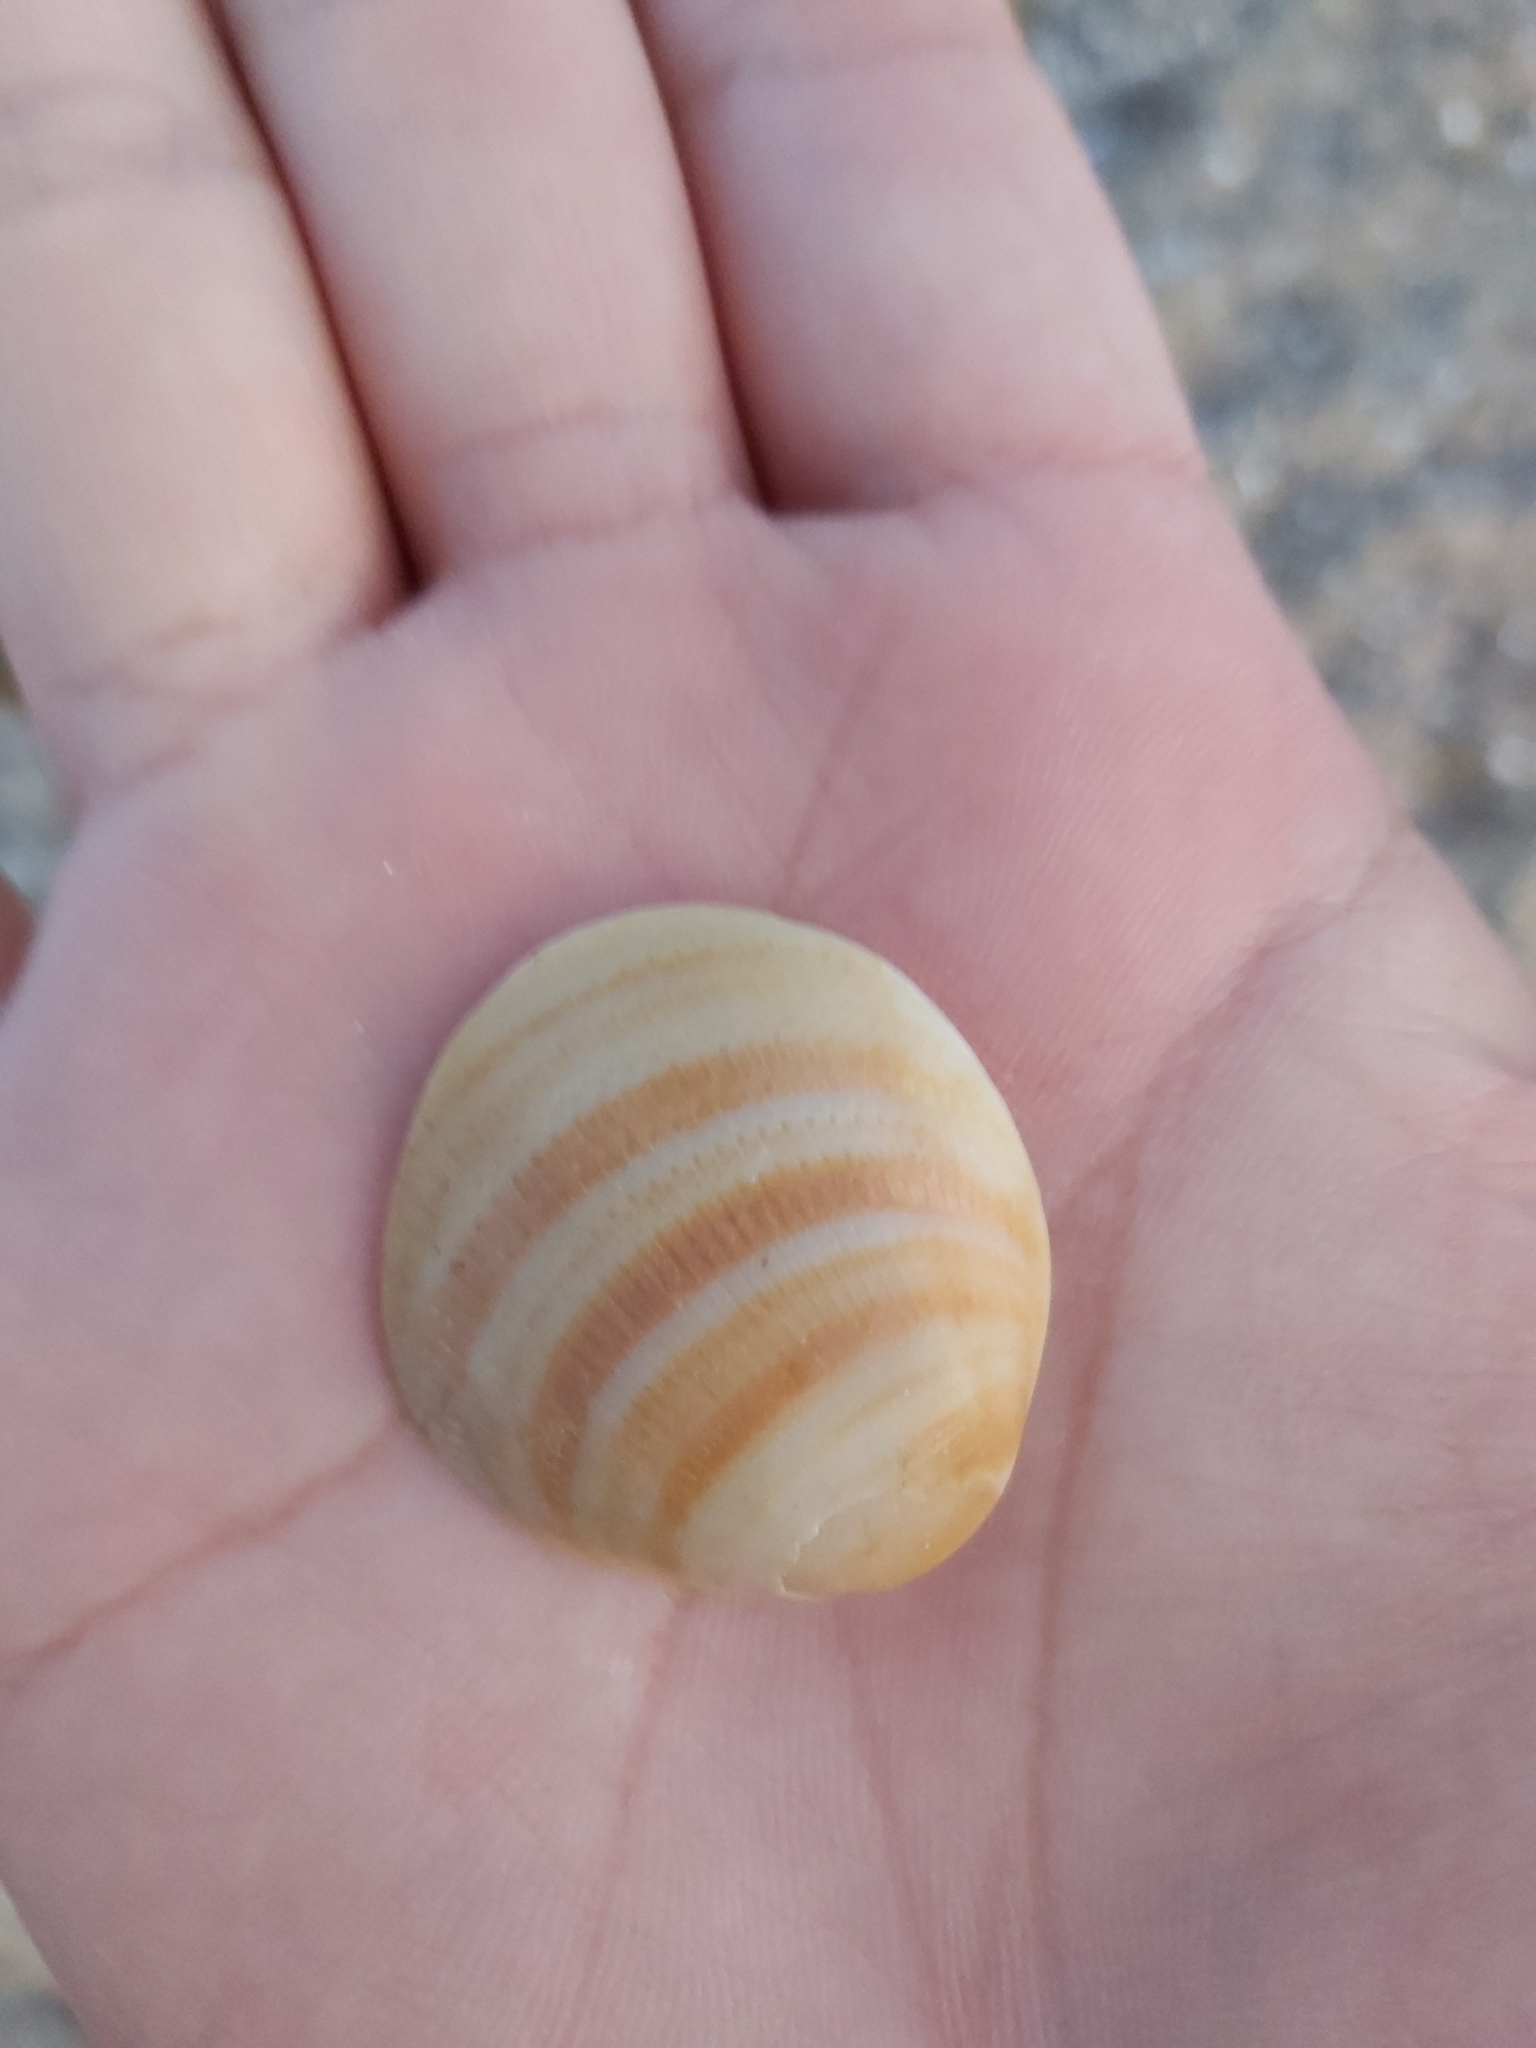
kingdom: Animalia
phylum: Mollusca
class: Bivalvia
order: Arcida
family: Glycymerididae
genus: Glycymeris
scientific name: Glycymeris grayana
